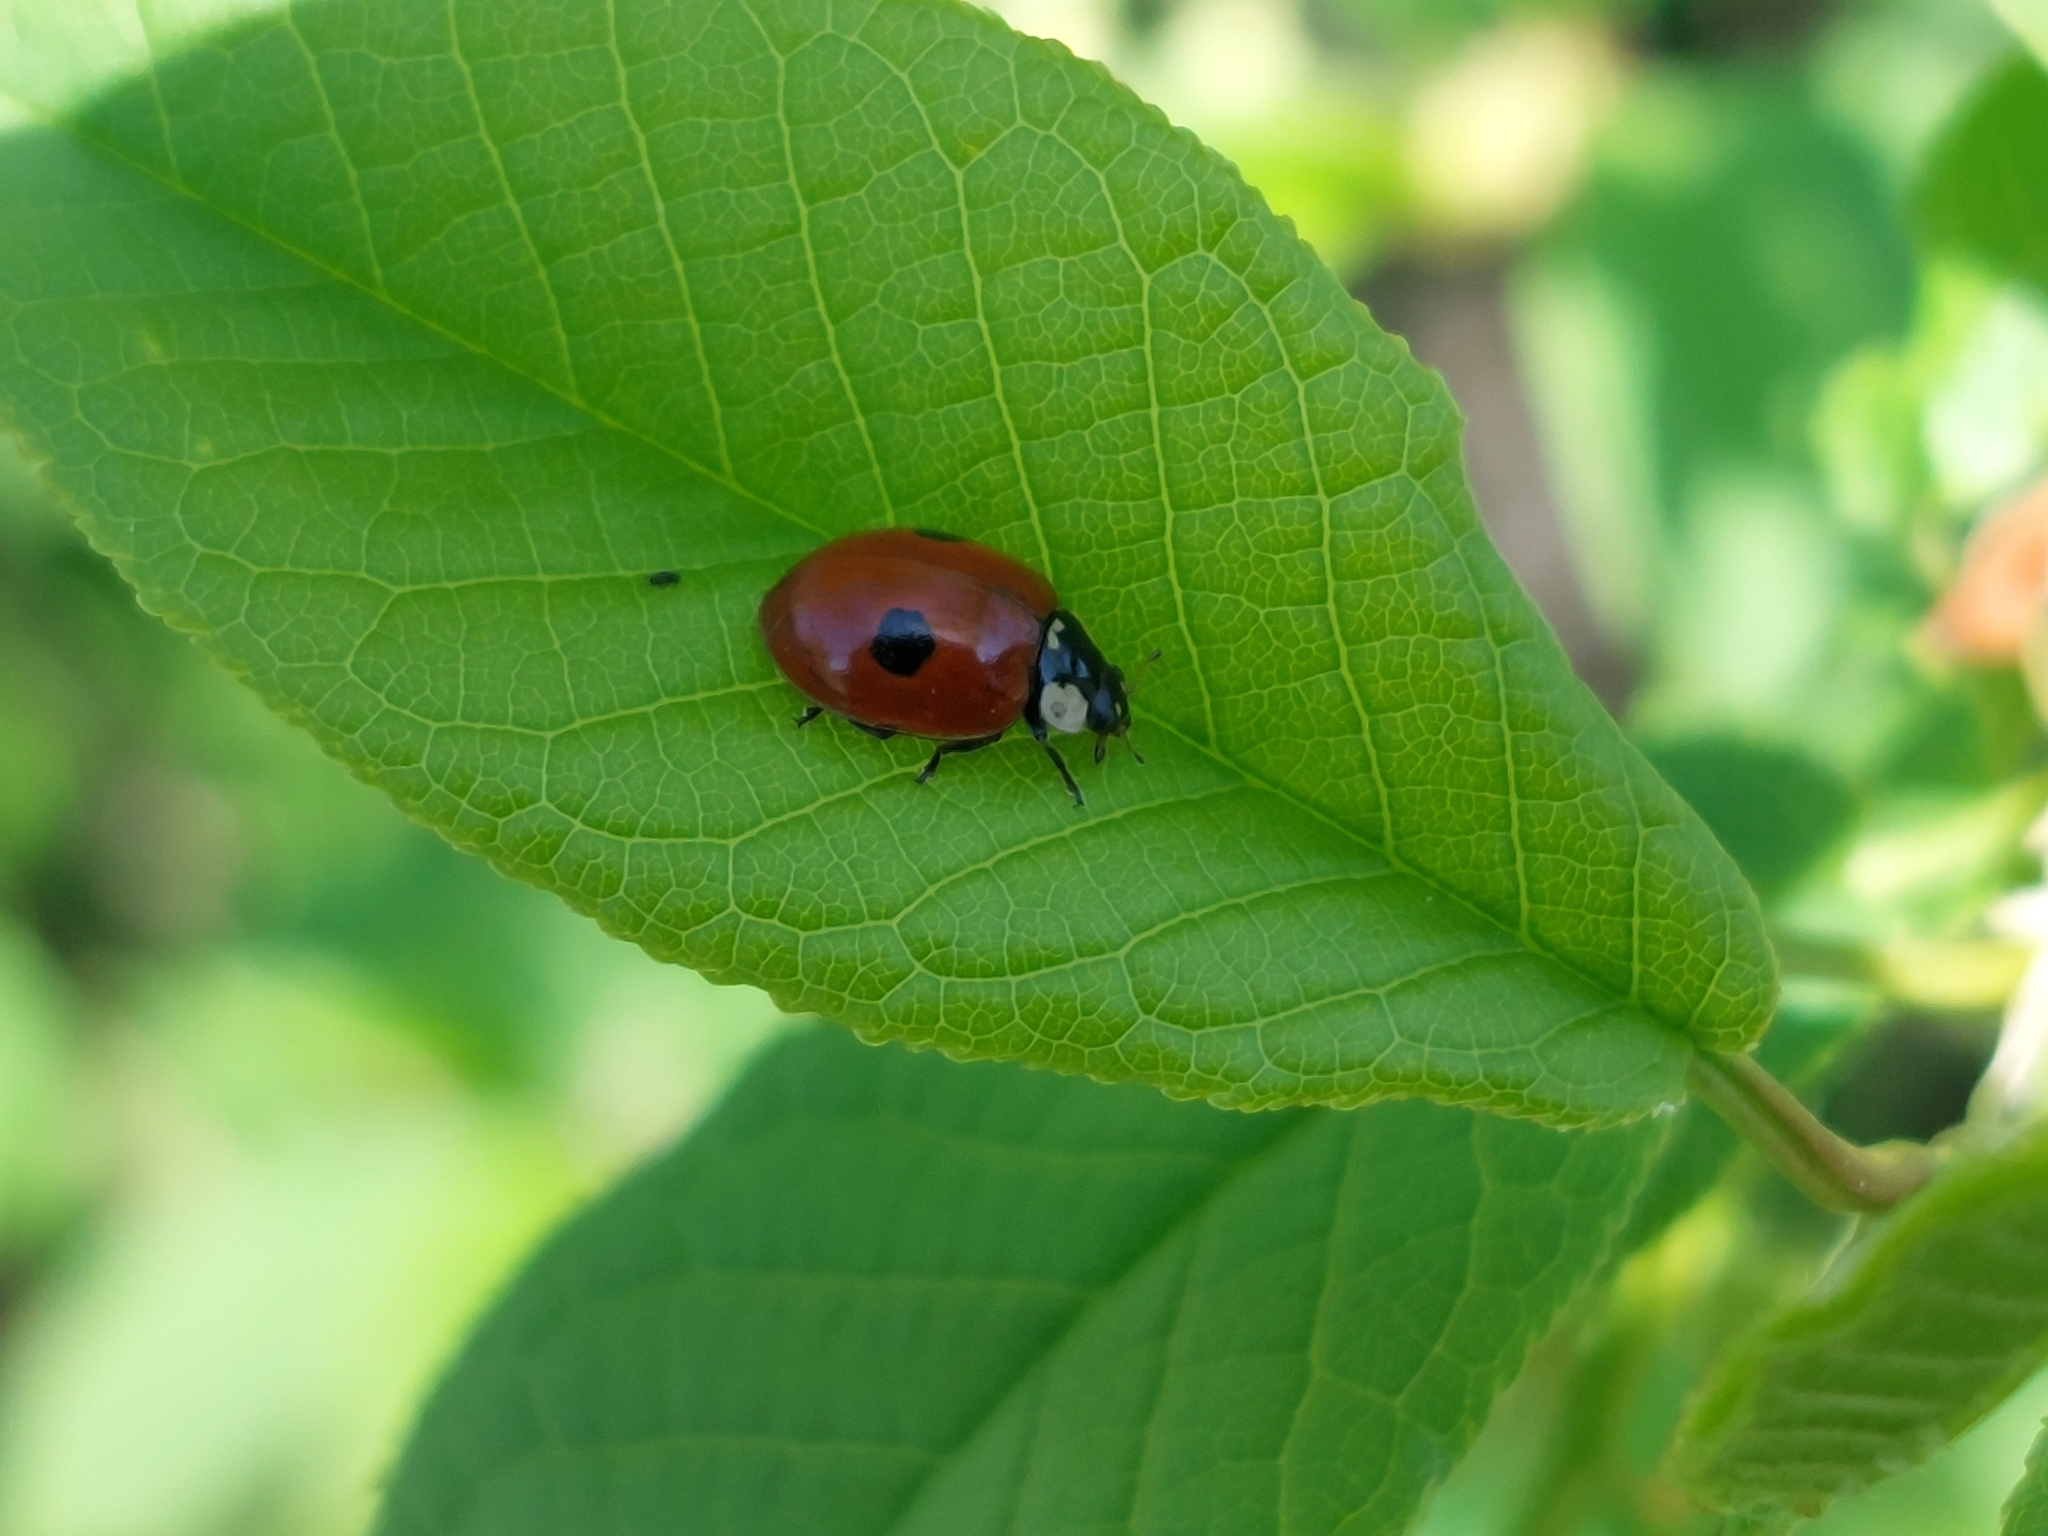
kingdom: Animalia
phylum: Arthropoda
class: Insecta
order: Coleoptera
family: Coccinellidae
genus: Adalia
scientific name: Adalia bipunctata
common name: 2-spot ladybird
